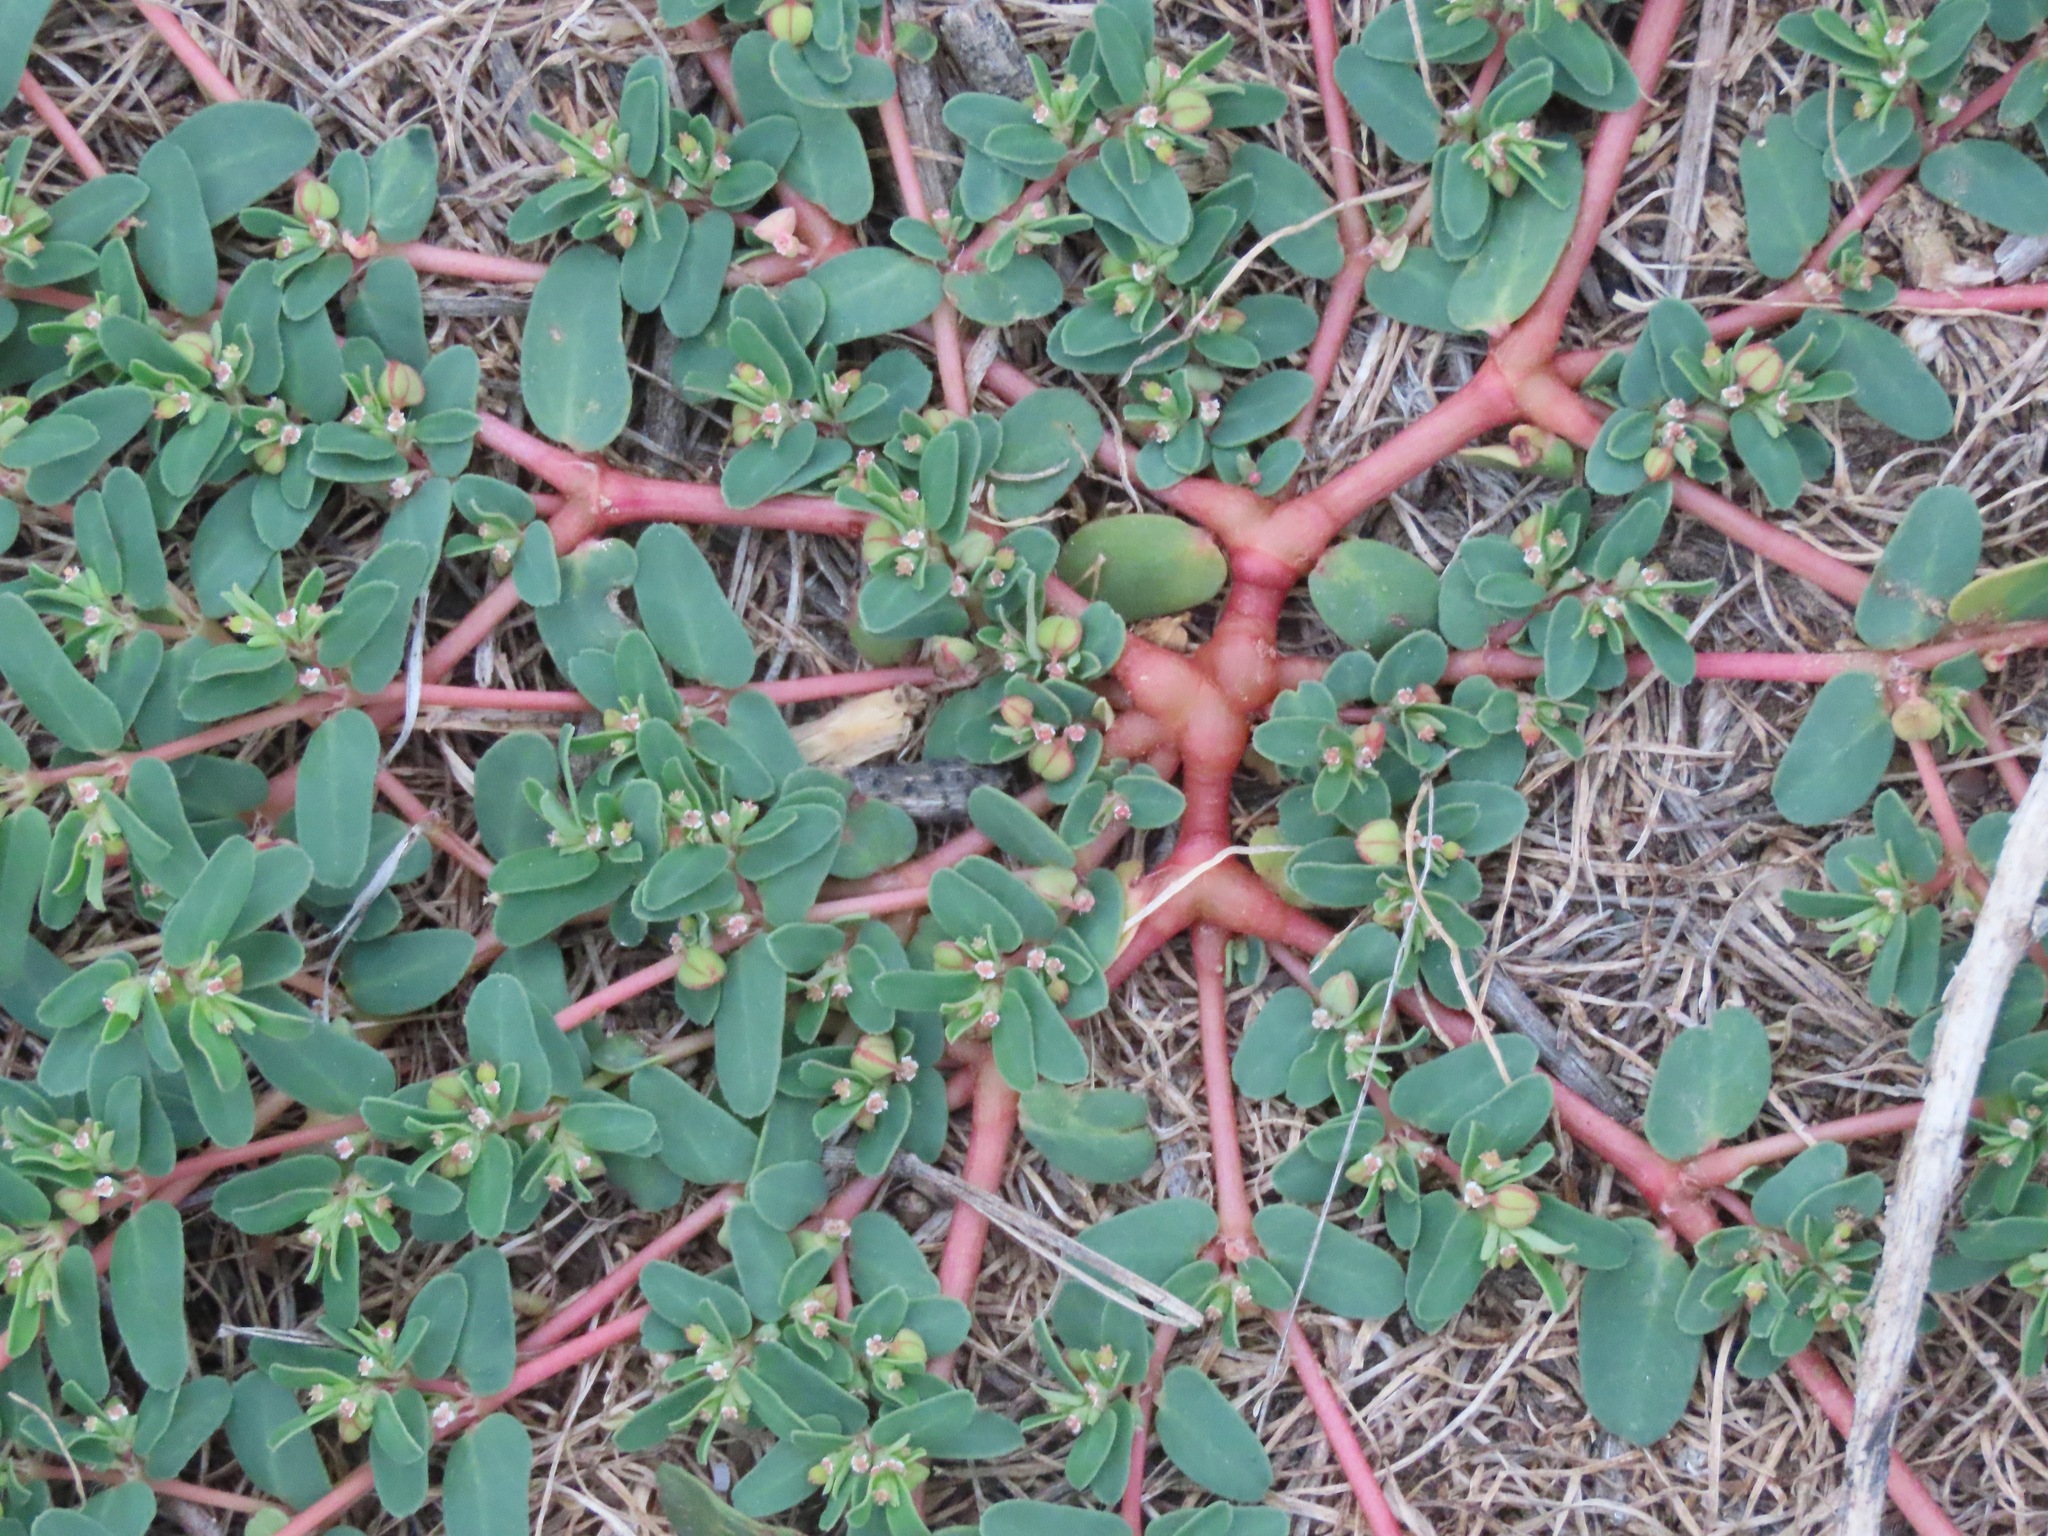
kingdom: Plantae
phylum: Tracheophyta
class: Magnoliopsida
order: Malpighiales
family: Euphorbiaceae
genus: Euphorbia
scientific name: Euphorbia glyptosperma
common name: Corrugate-seeded spurge
